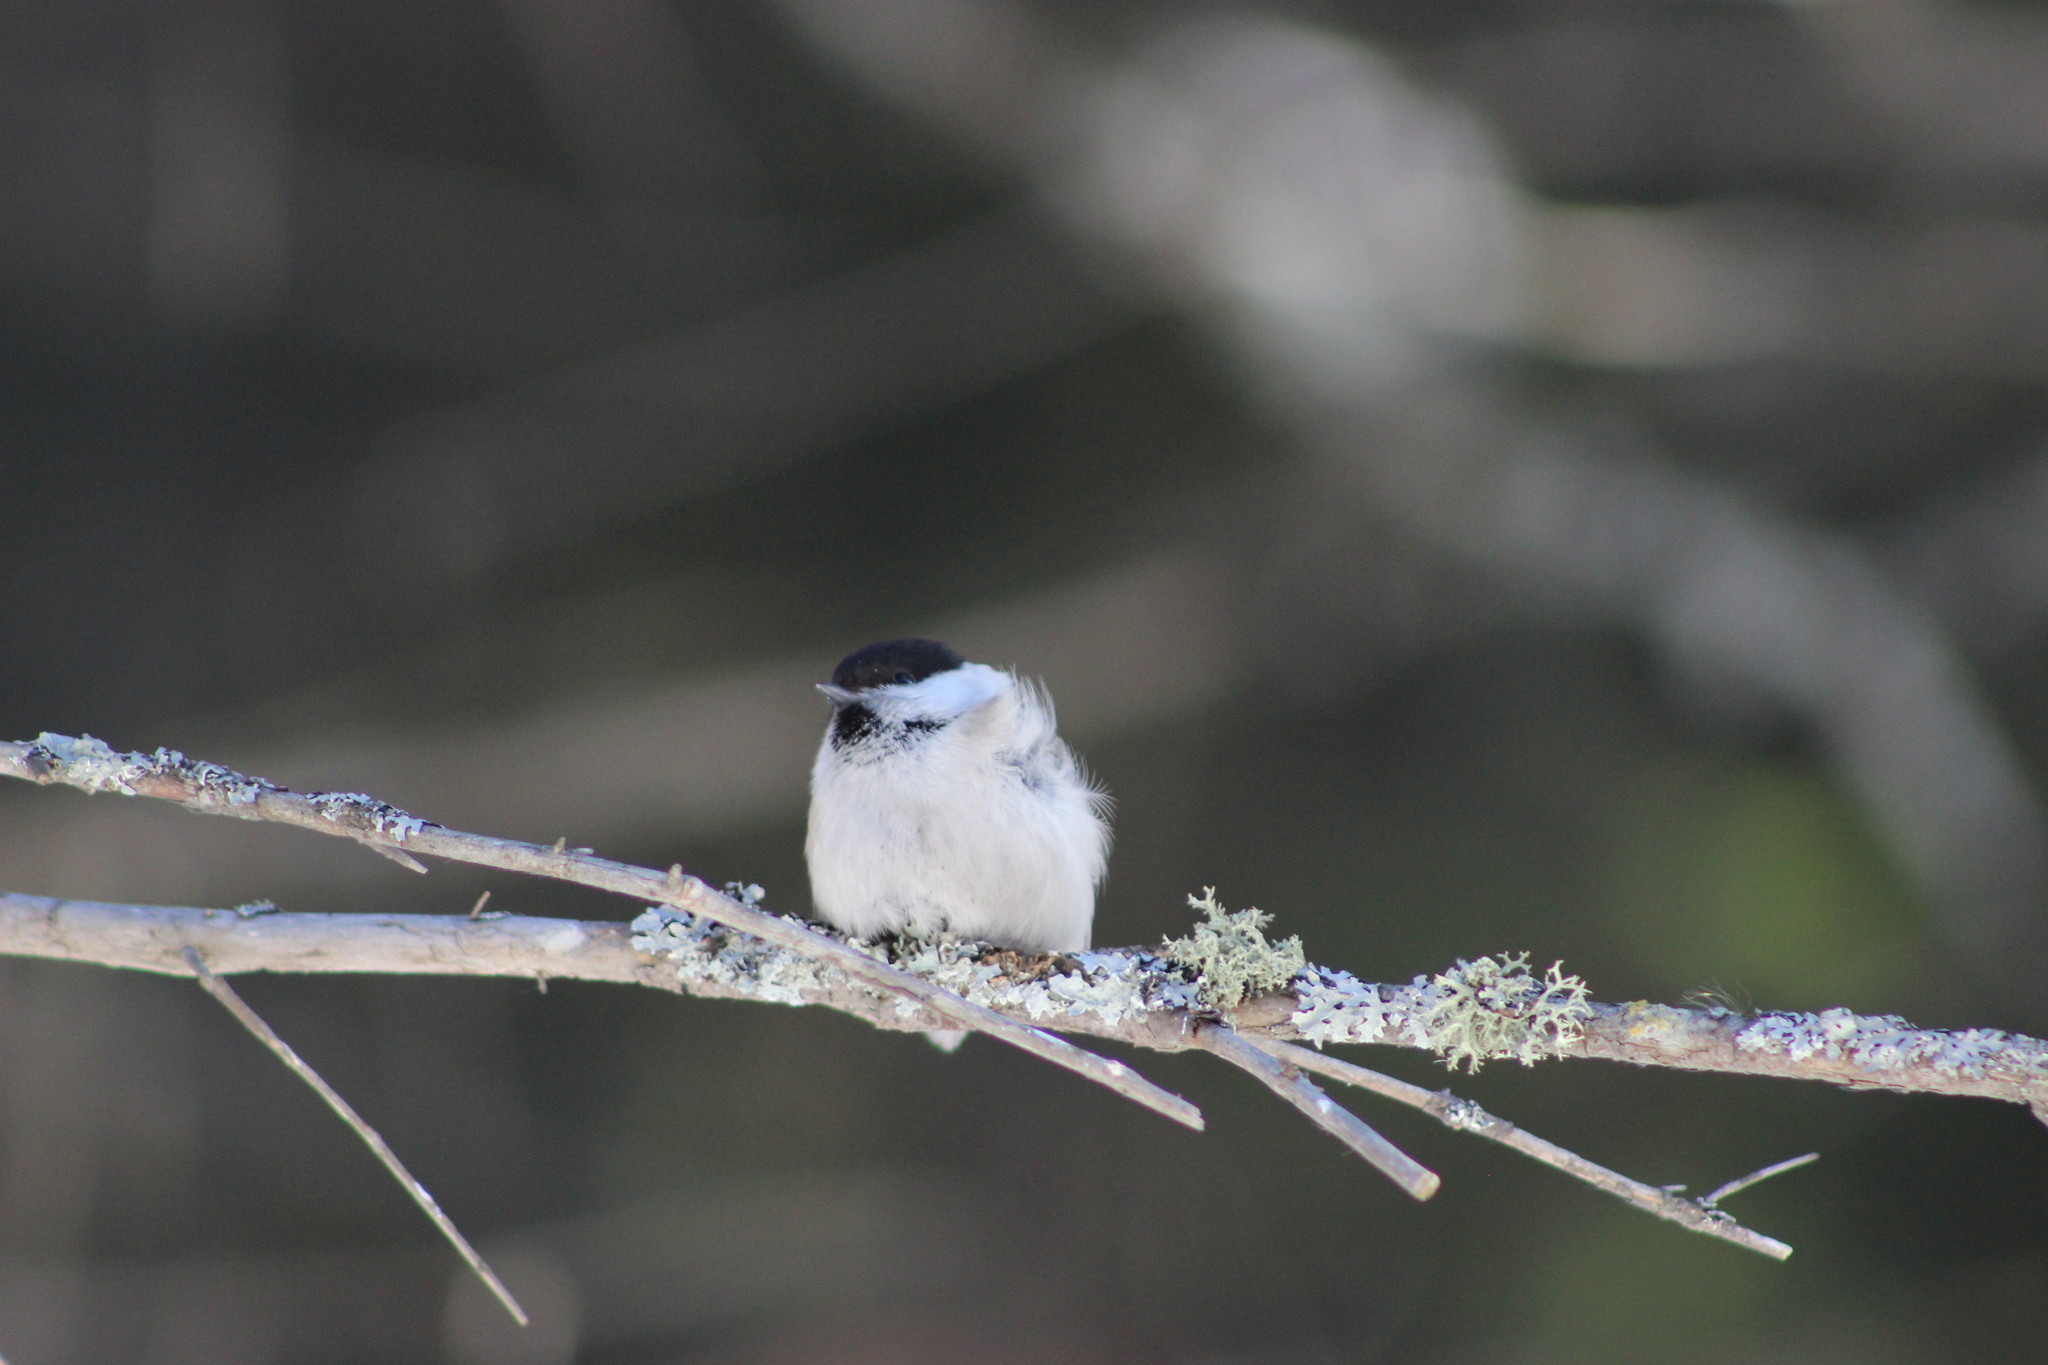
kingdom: Animalia
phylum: Chordata
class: Aves
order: Passeriformes
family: Paridae
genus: Poecile
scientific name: Poecile montanus
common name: Willow tit
